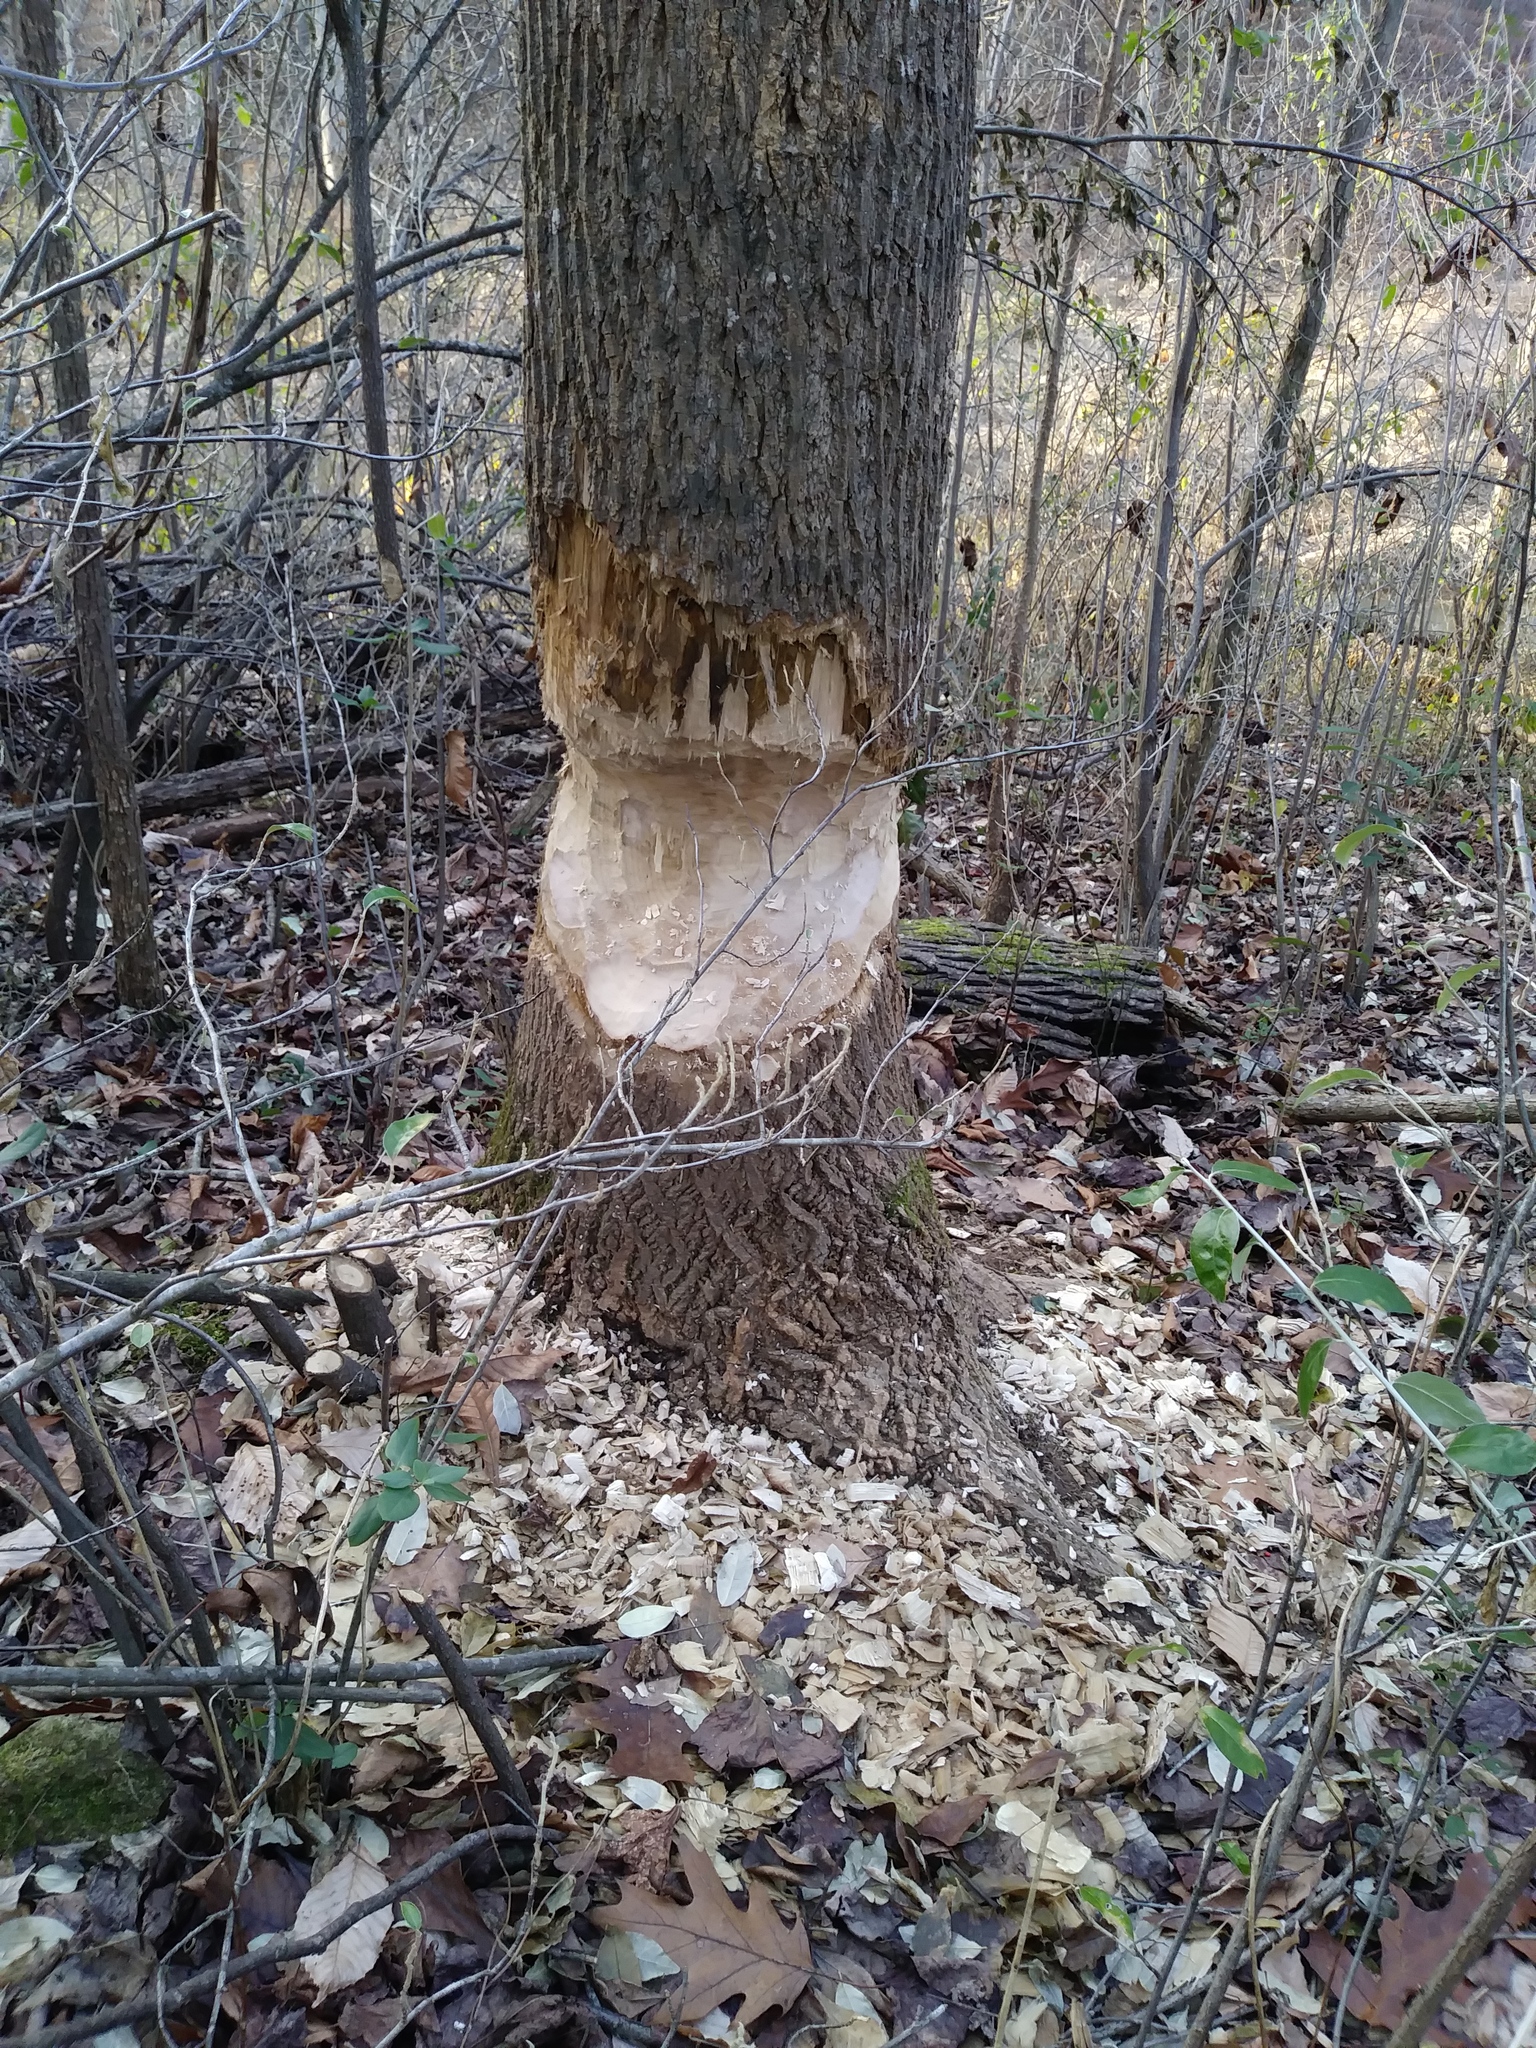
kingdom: Animalia
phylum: Chordata
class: Mammalia
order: Rodentia
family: Castoridae
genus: Castor
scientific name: Castor canadensis
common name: American beaver
